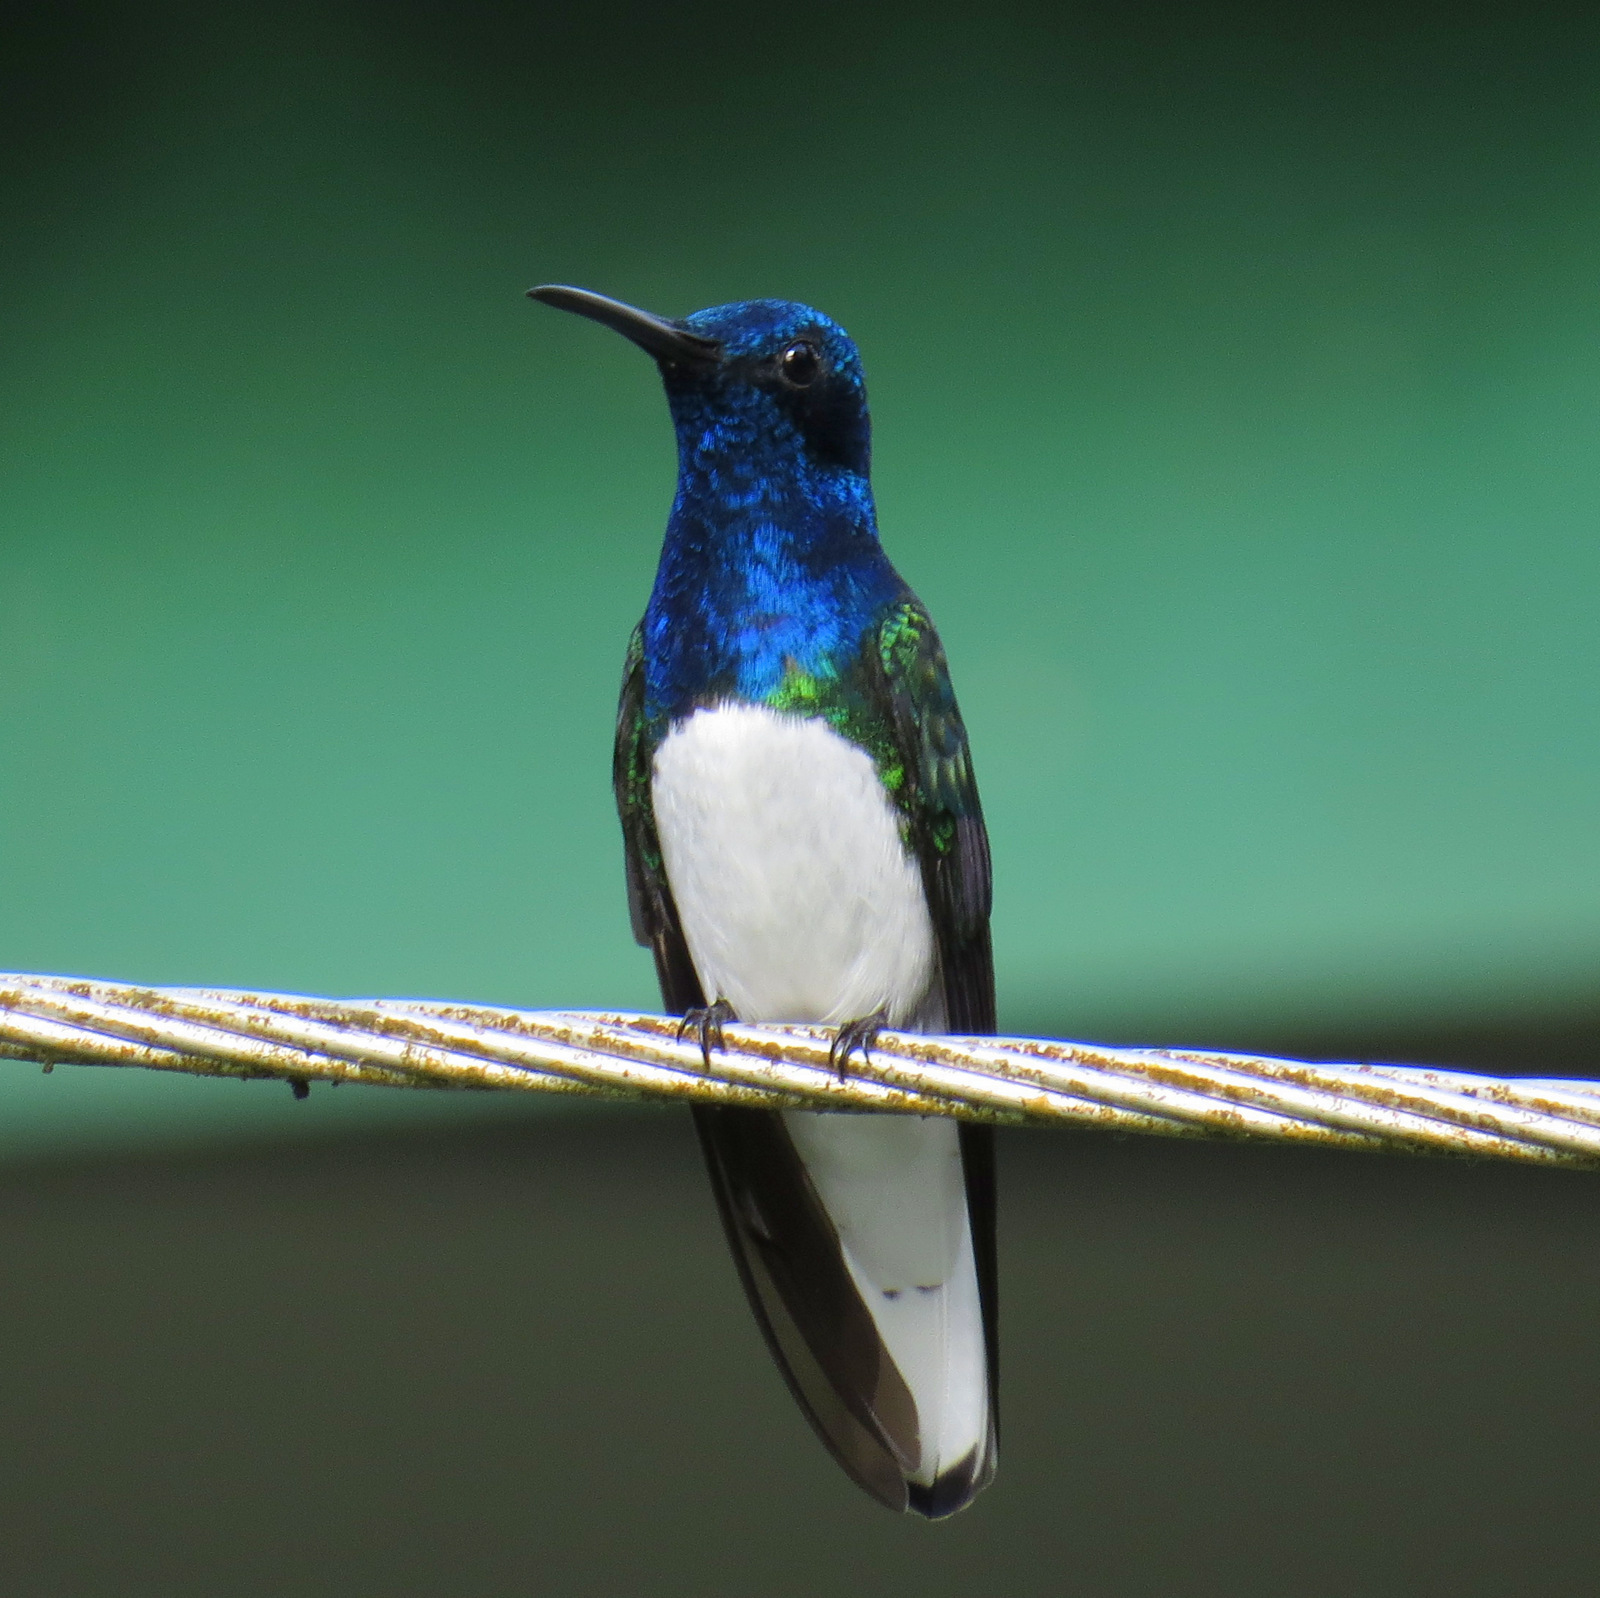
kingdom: Animalia
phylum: Chordata
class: Aves
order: Apodiformes
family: Trochilidae
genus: Florisuga
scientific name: Florisuga mellivora
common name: White-necked jacobin
